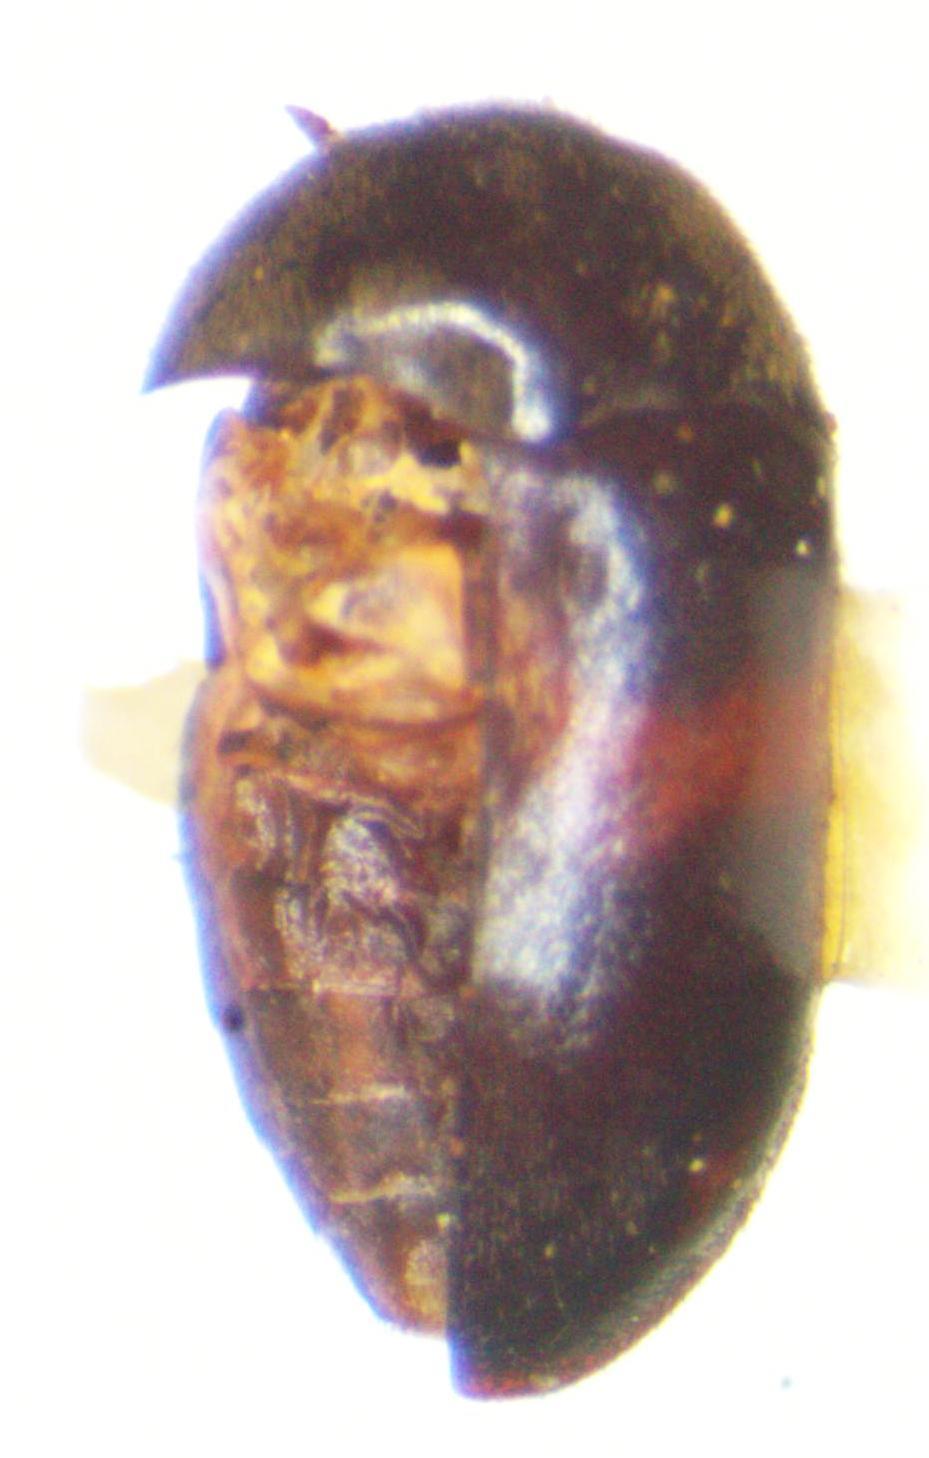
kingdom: Animalia
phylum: Arthropoda
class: Insecta
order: Coleoptera
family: Dermestidae
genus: Attagenus
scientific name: Attagenus fasciatus
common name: Wardrobe beetle
